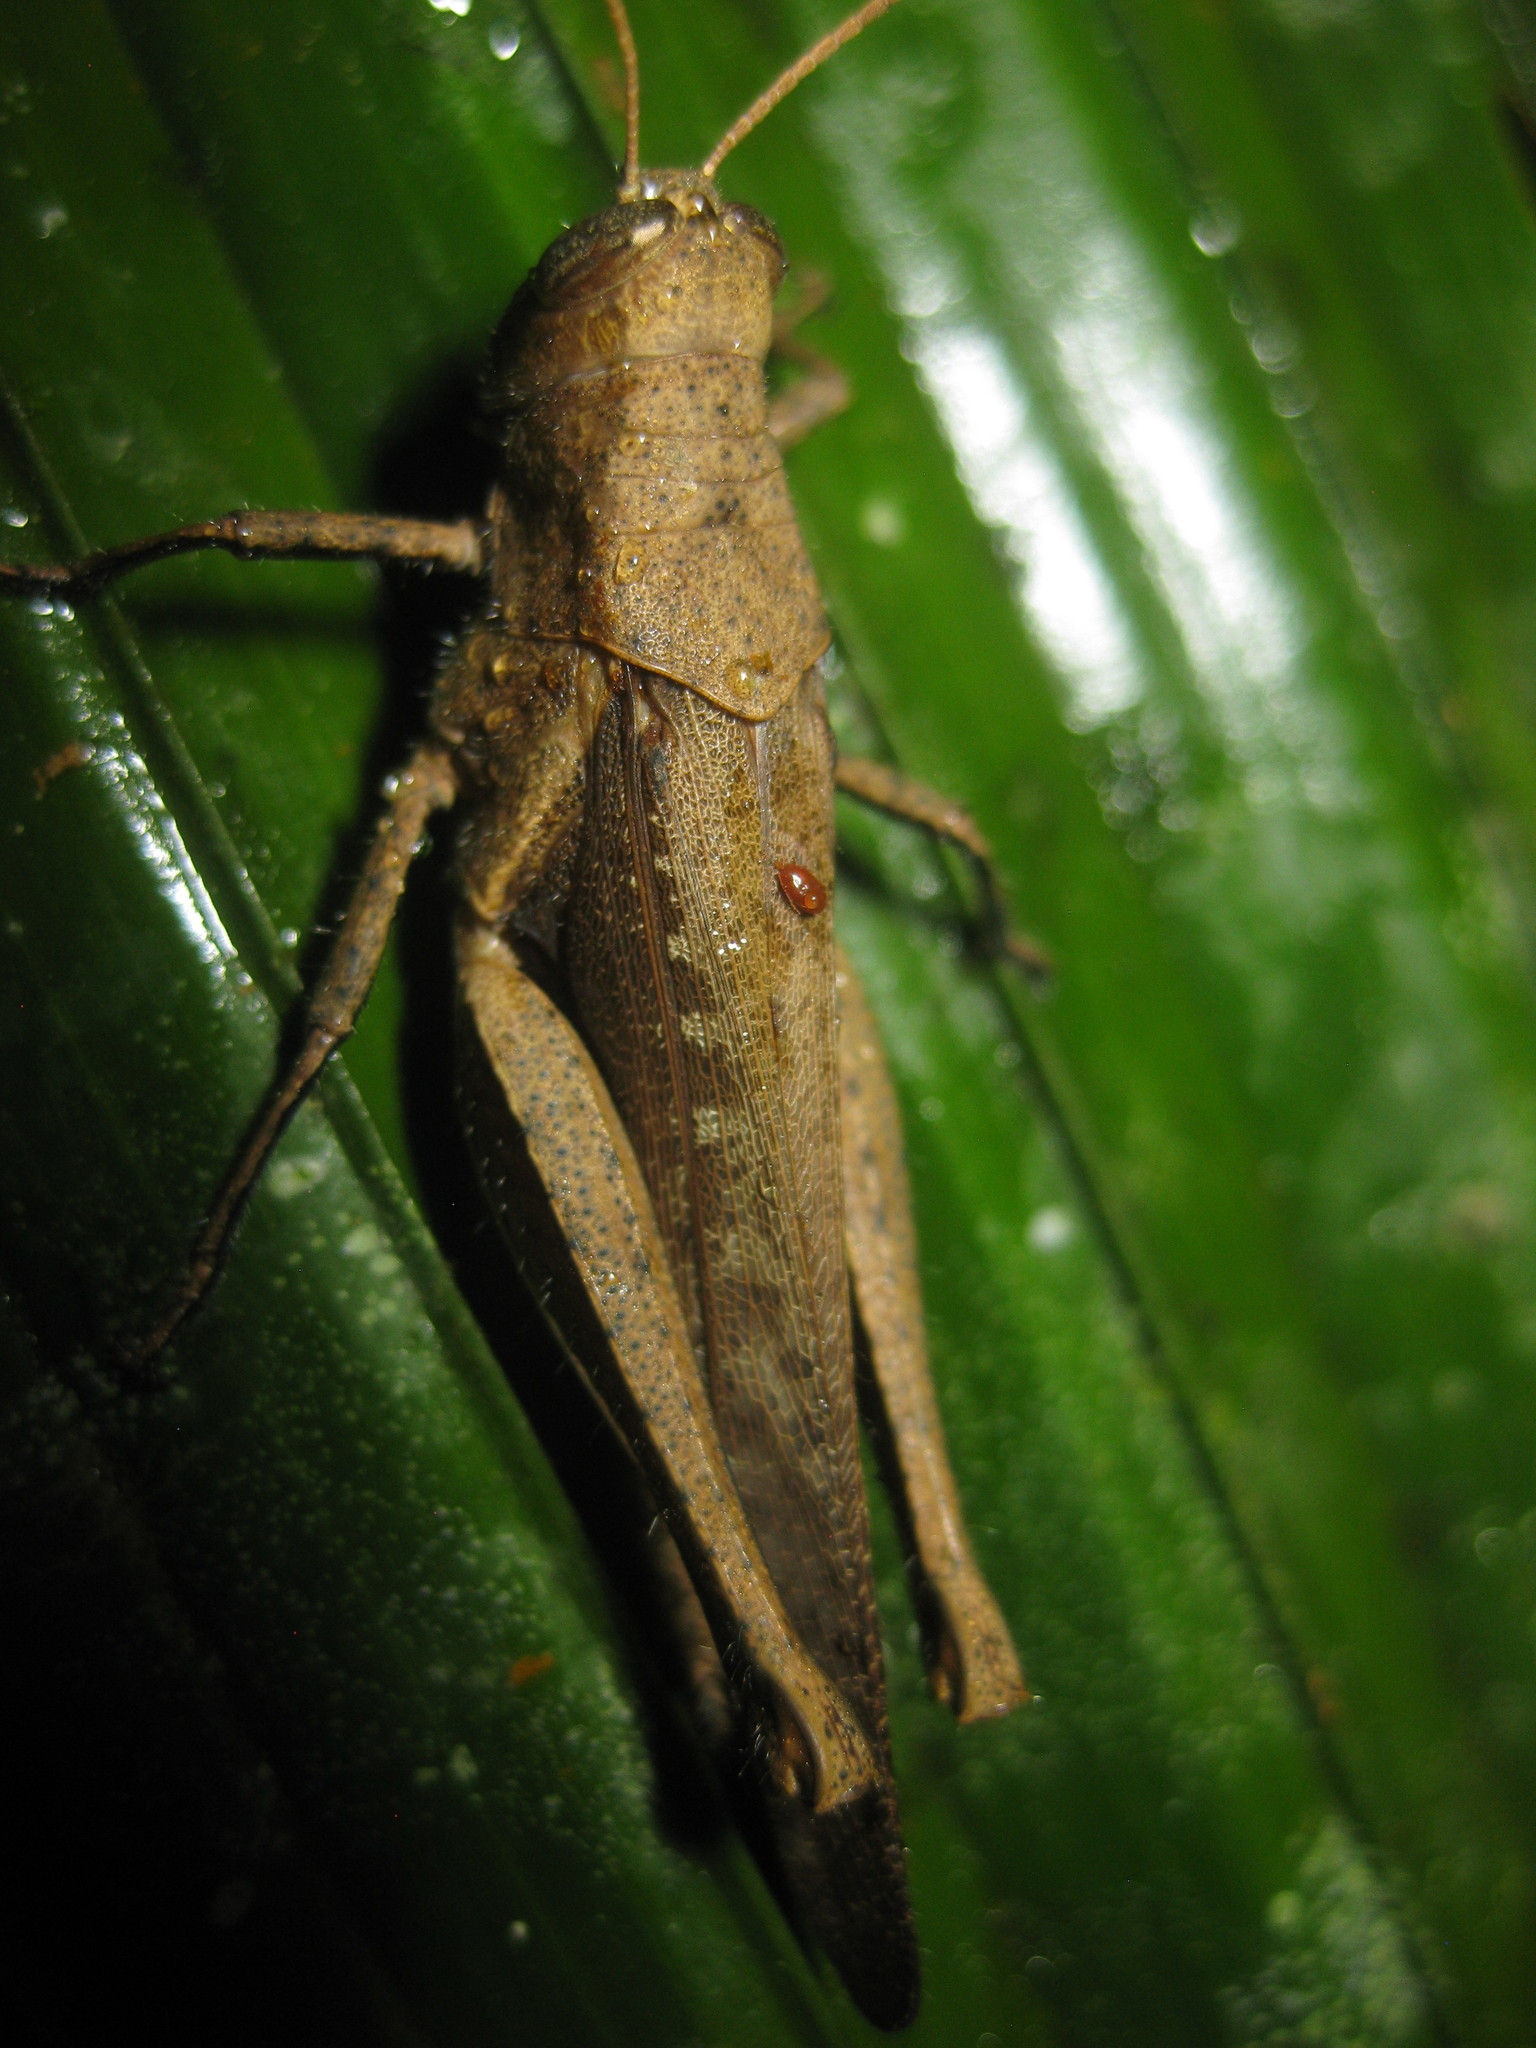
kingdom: Animalia
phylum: Arthropoda
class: Insecta
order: Orthoptera
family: Acrididae
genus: Abracris
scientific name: Abracris flavolineata
